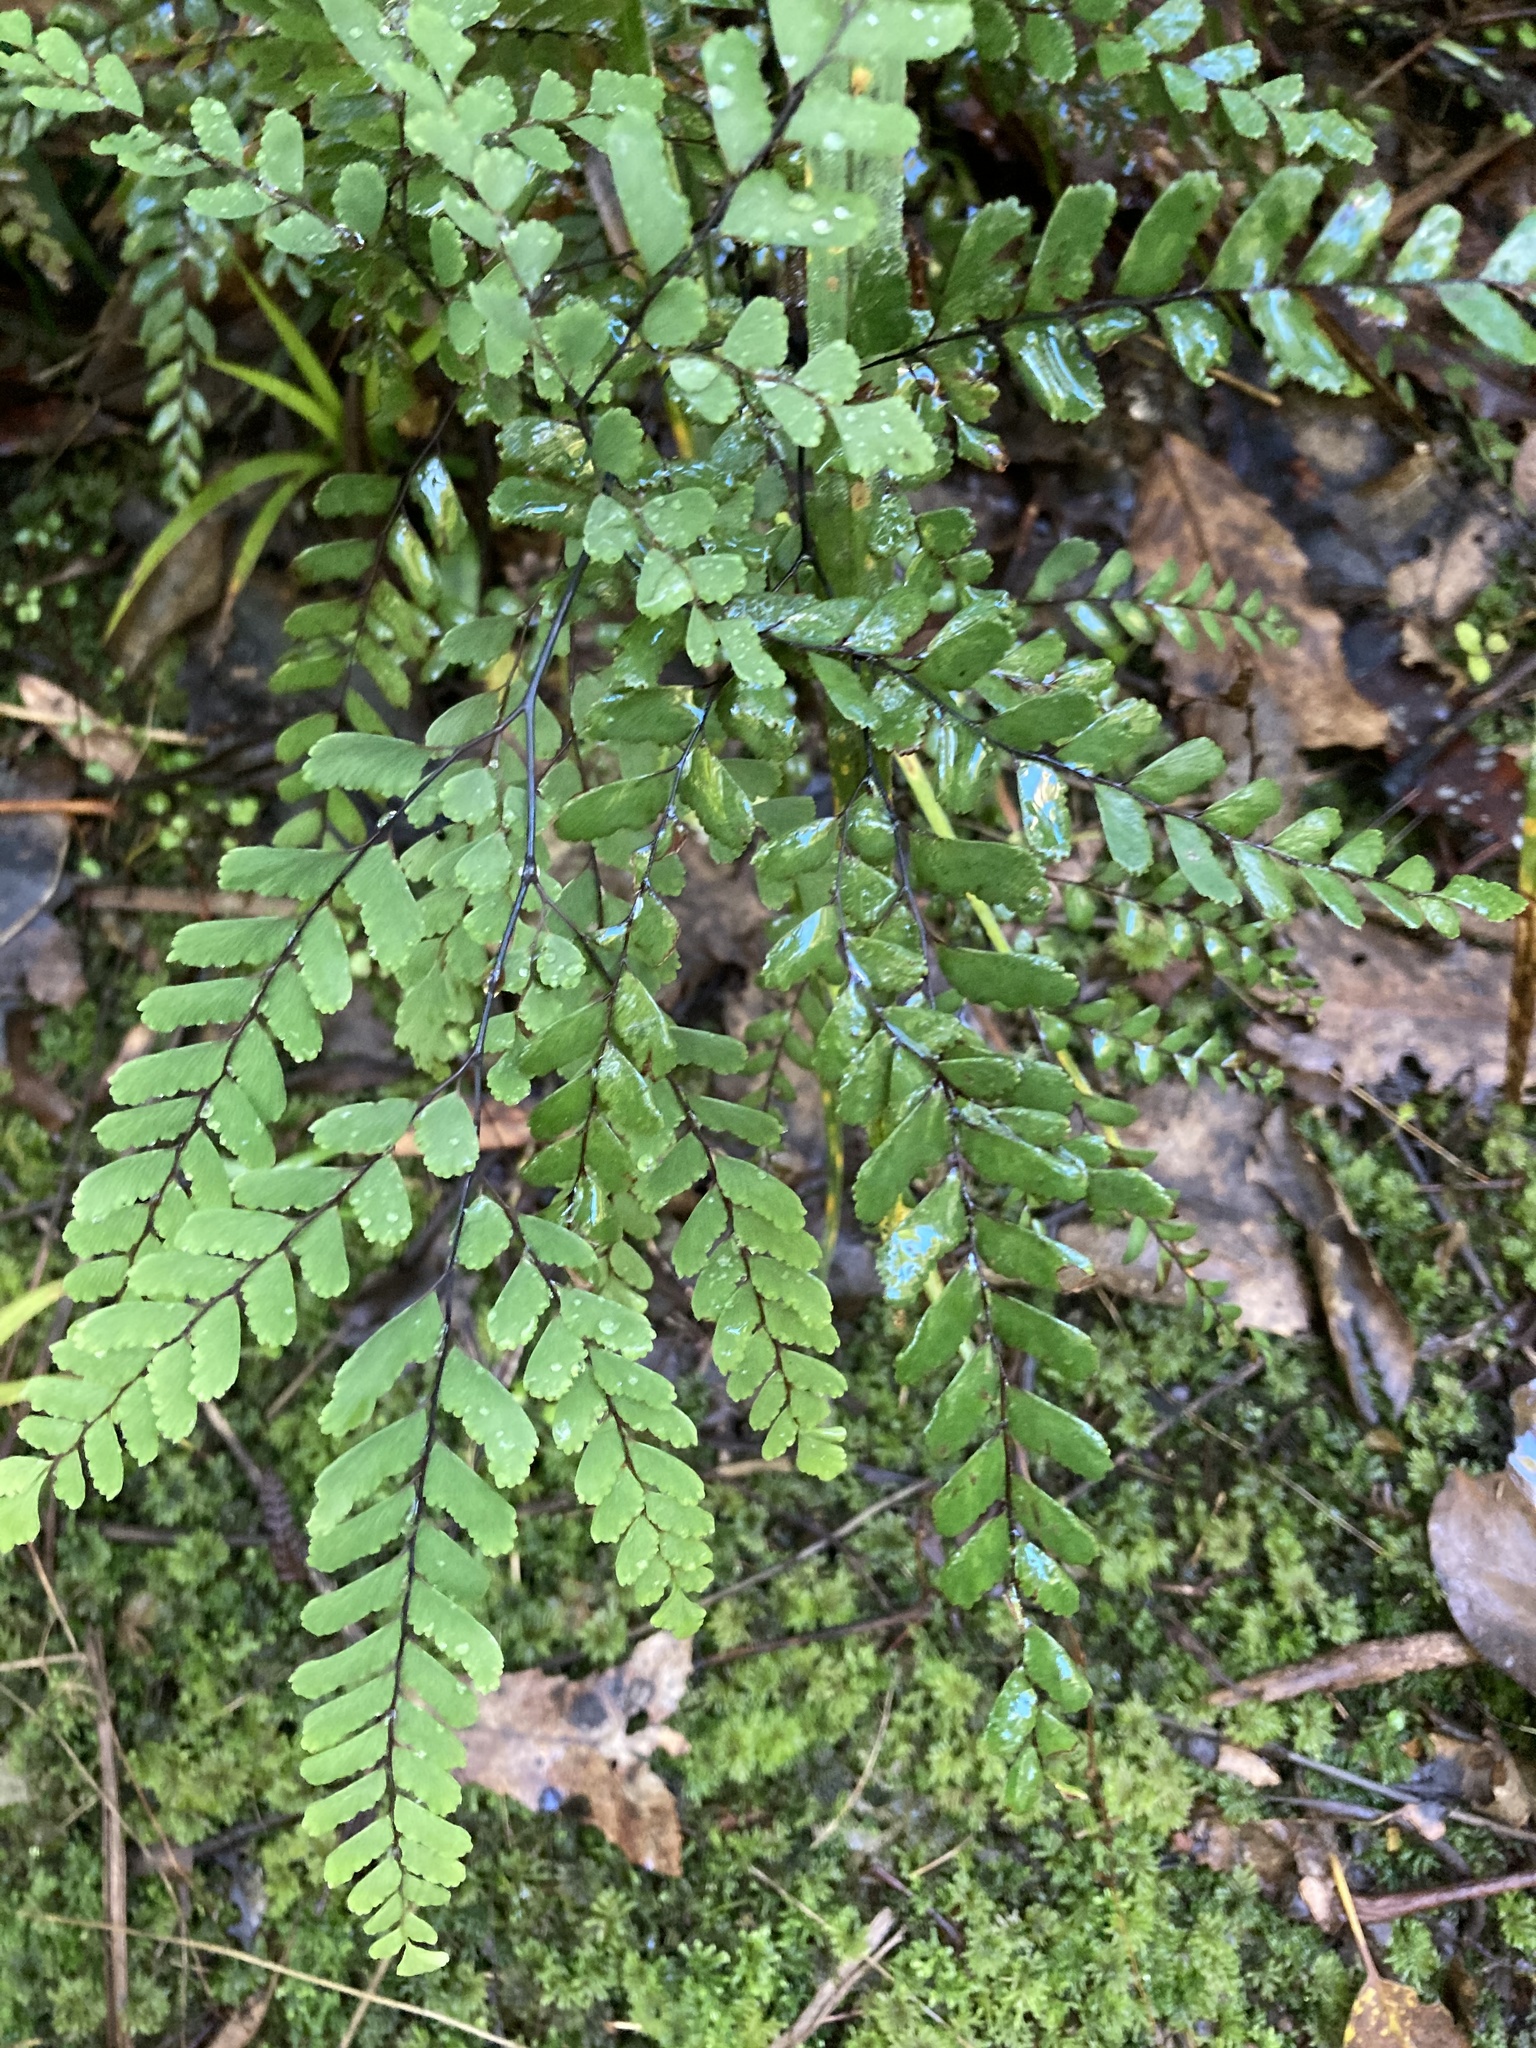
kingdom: Plantae
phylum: Tracheophyta
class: Polypodiopsida
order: Polypodiales
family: Pteridaceae
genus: Adiantum
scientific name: Adiantum cunninghamii
